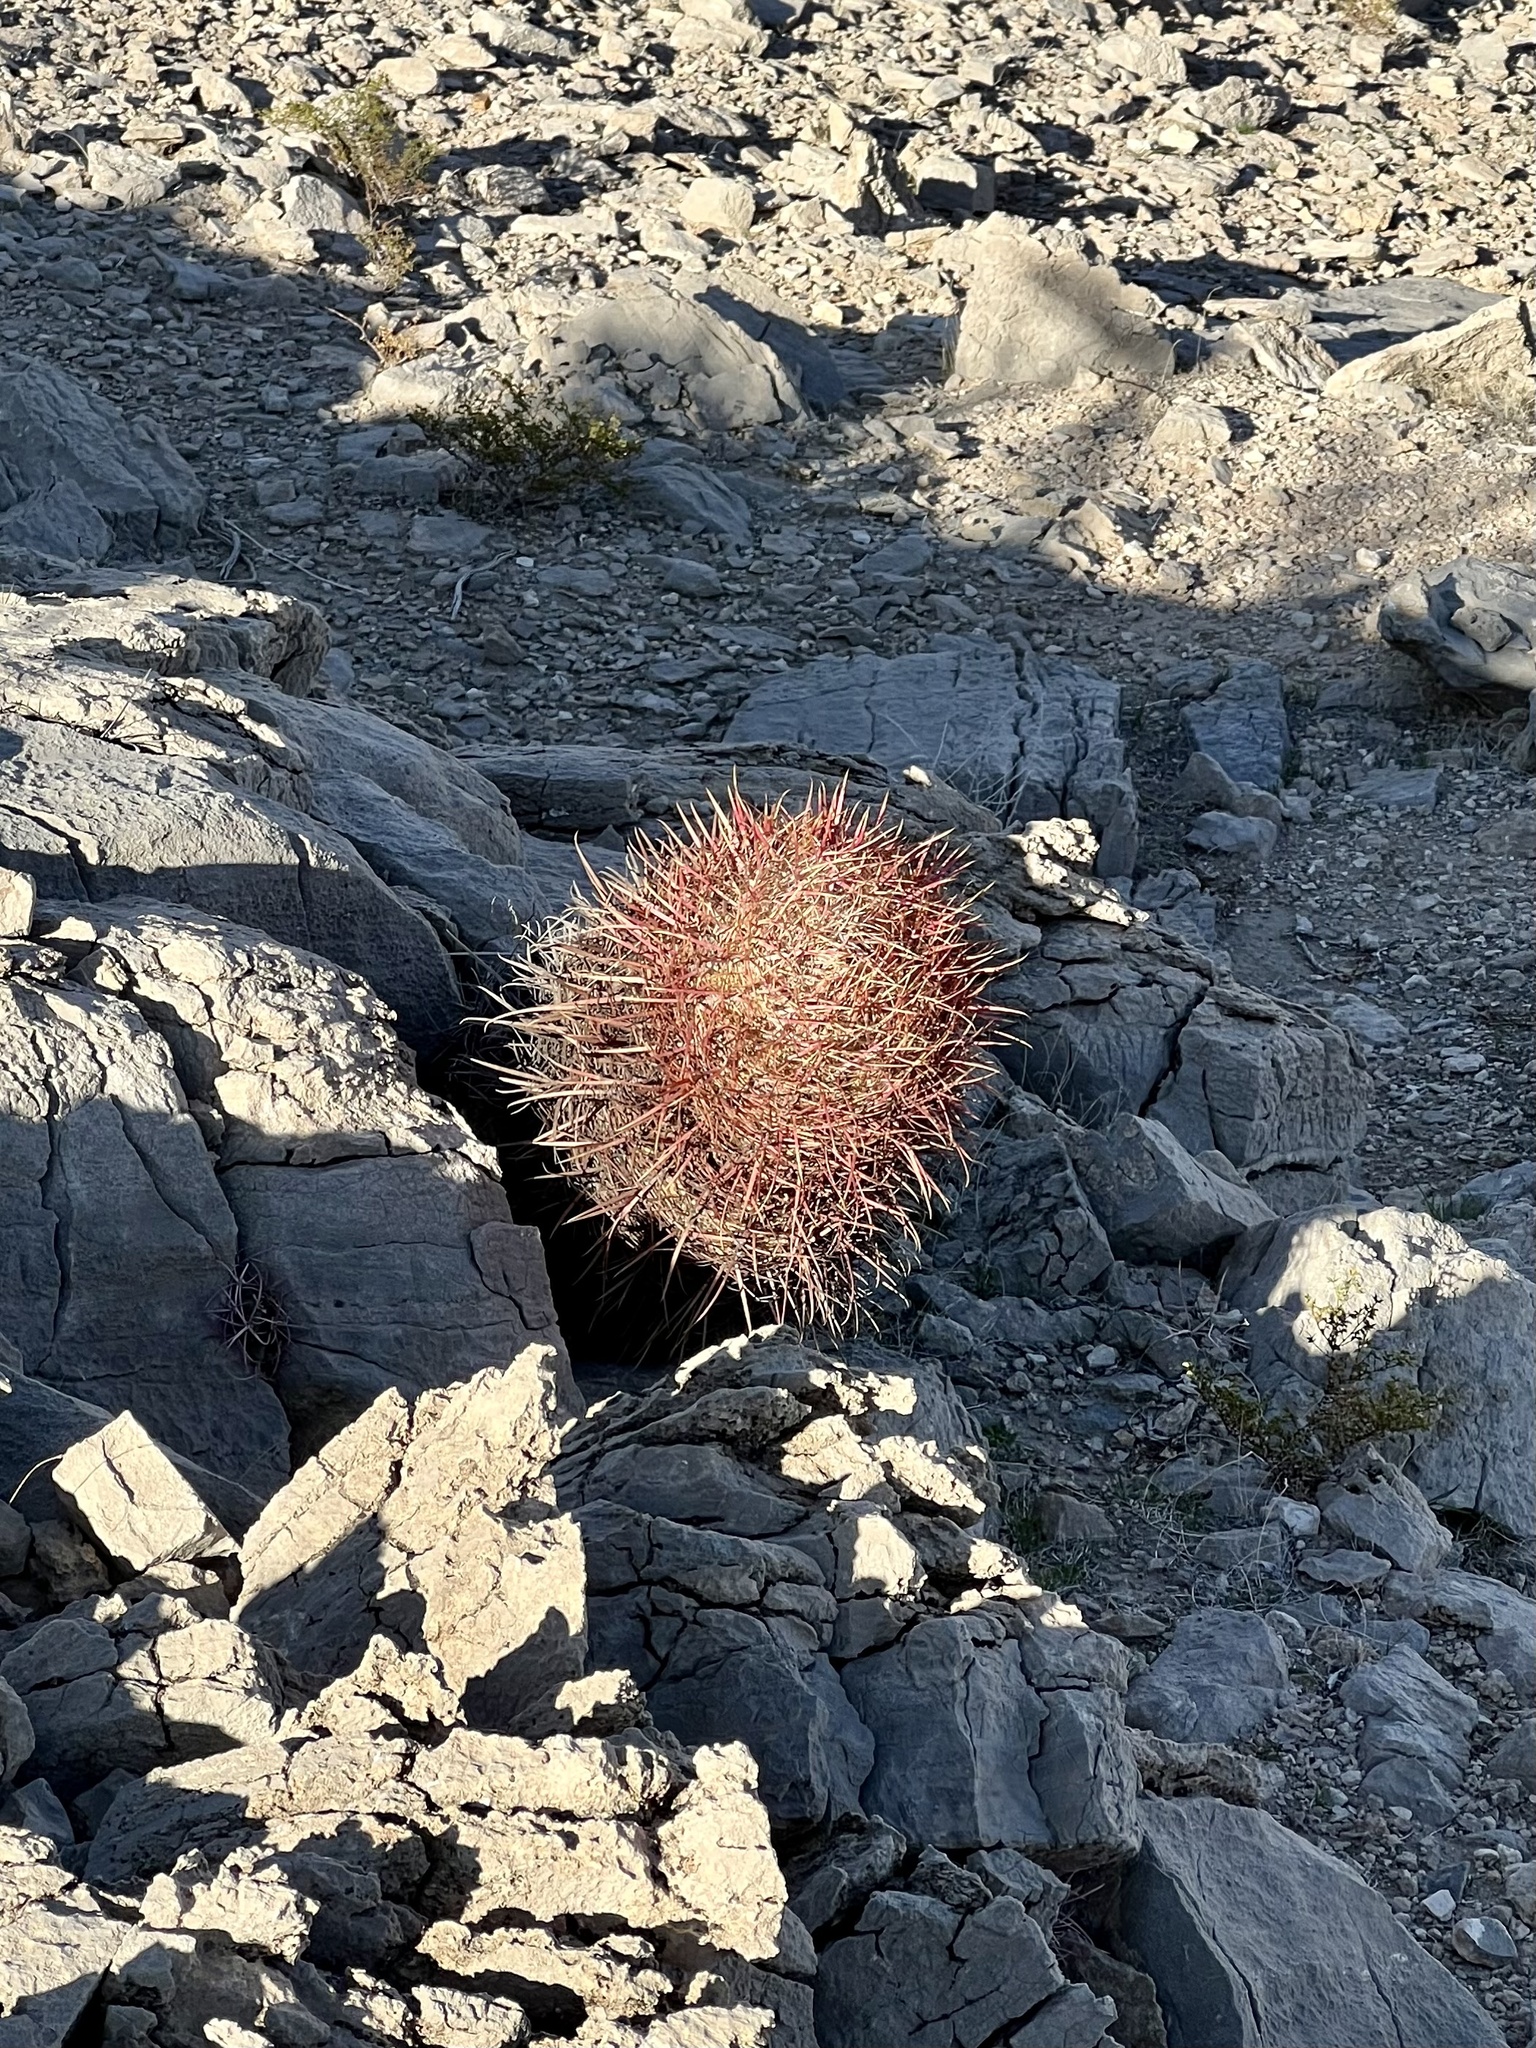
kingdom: Plantae
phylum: Tracheophyta
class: Magnoliopsida
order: Caryophyllales
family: Cactaceae
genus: Ferocactus
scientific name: Ferocactus cylindraceus
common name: California barrel cactus
